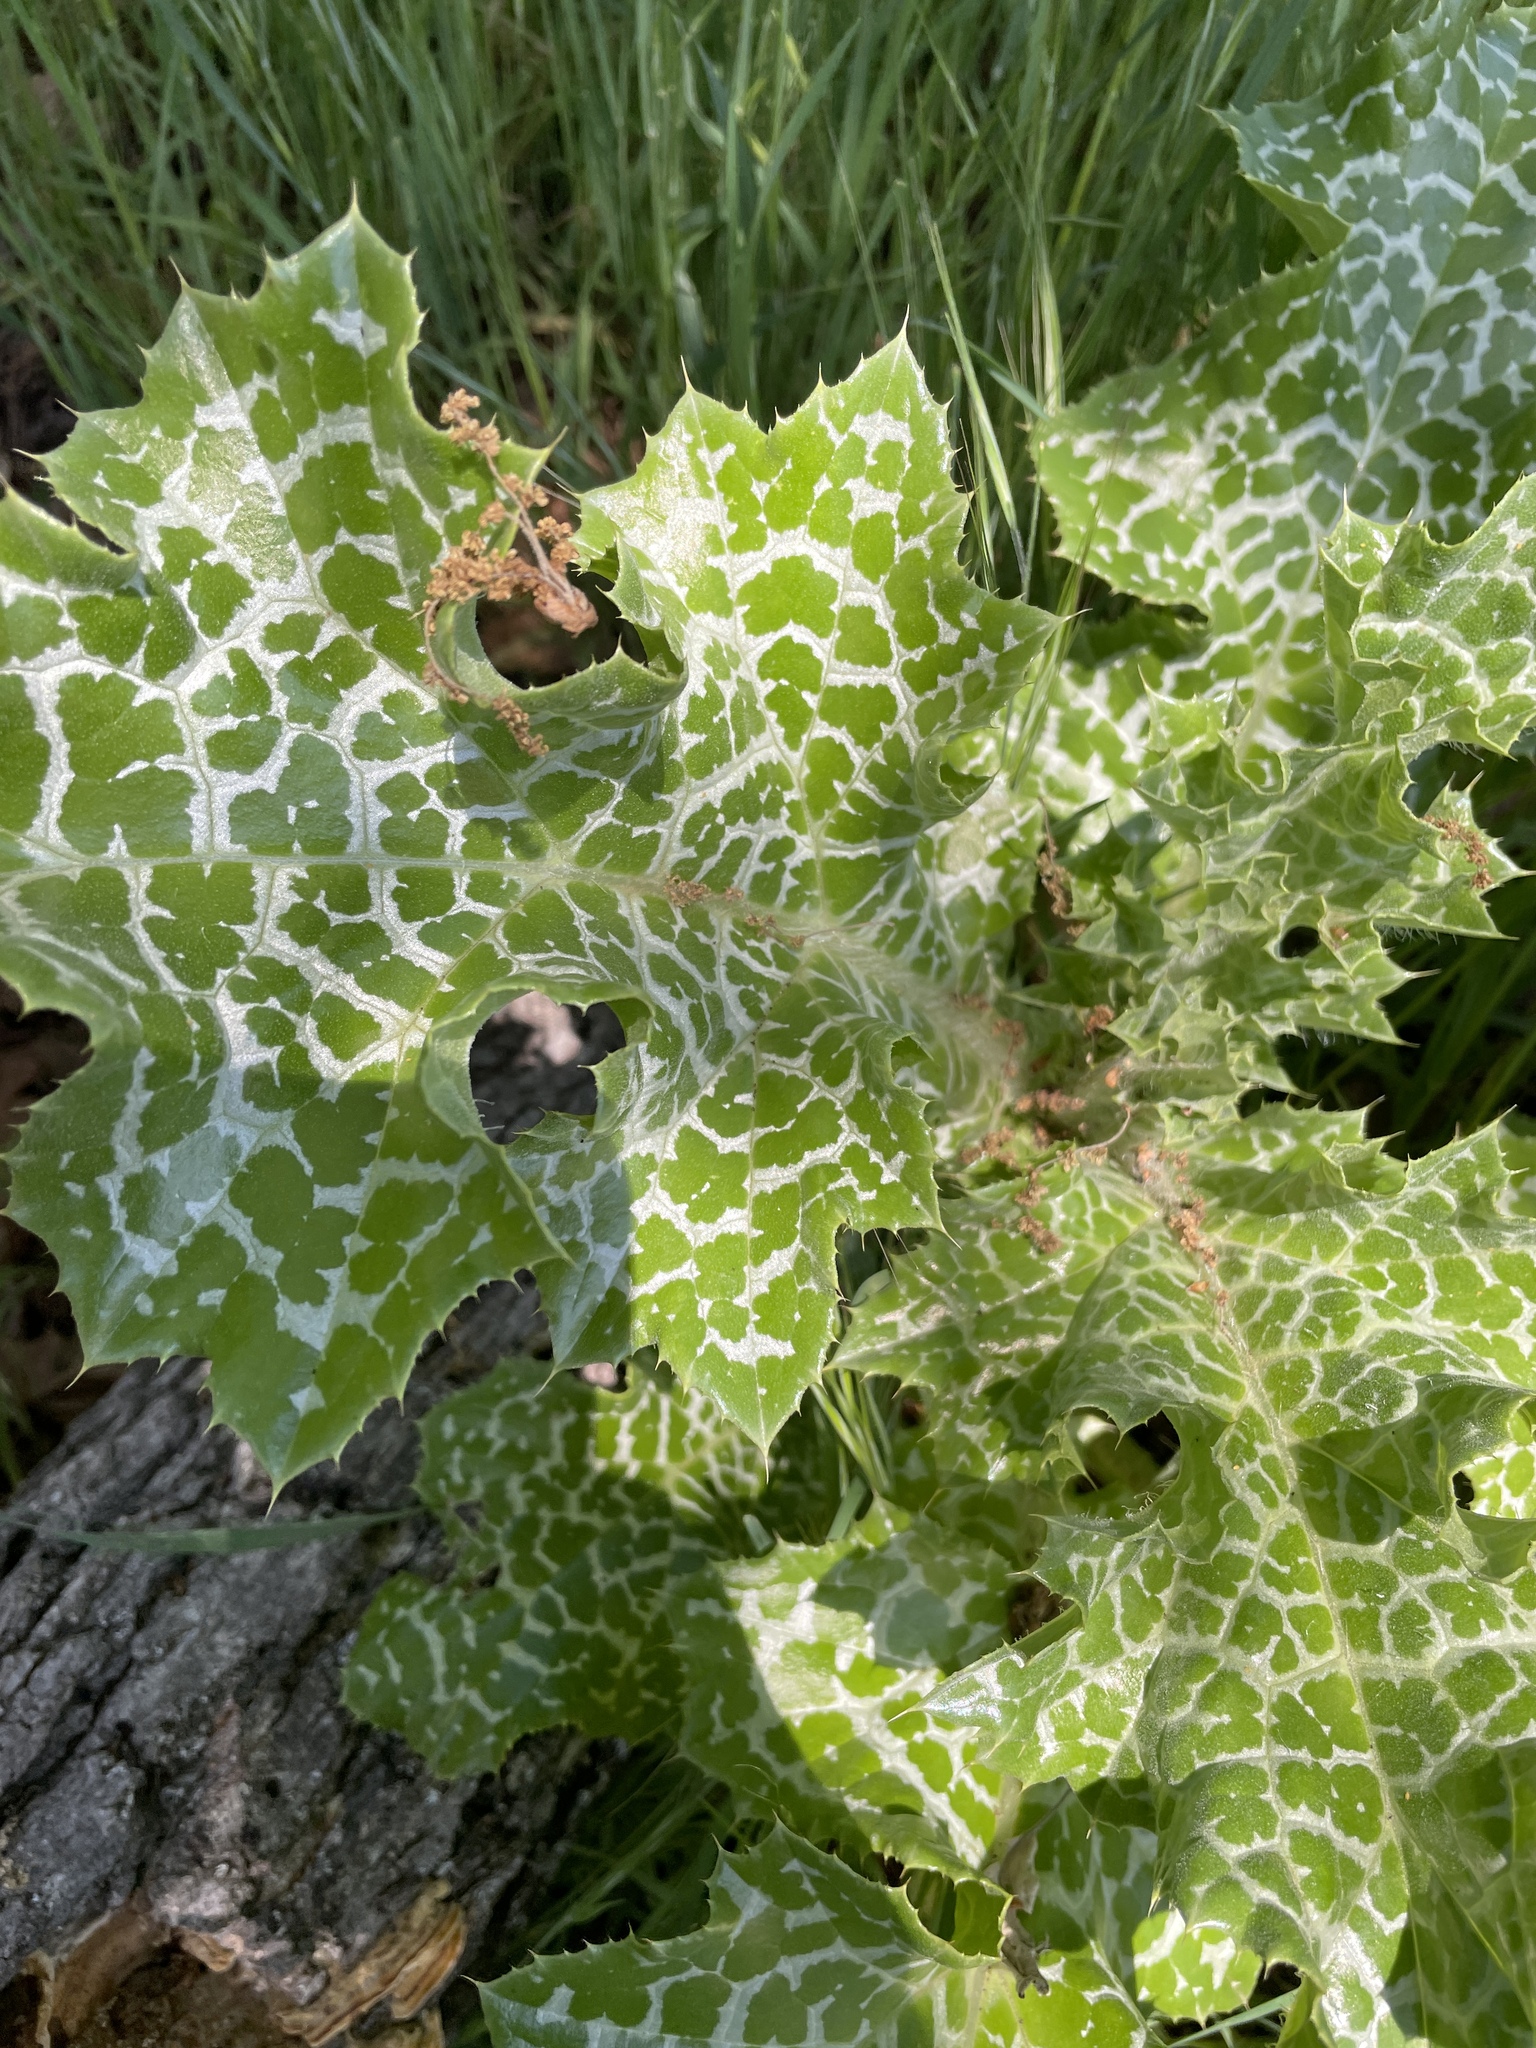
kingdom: Plantae
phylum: Tracheophyta
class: Magnoliopsida
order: Asterales
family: Asteraceae
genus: Silybum
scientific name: Silybum marianum
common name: Milk thistle
